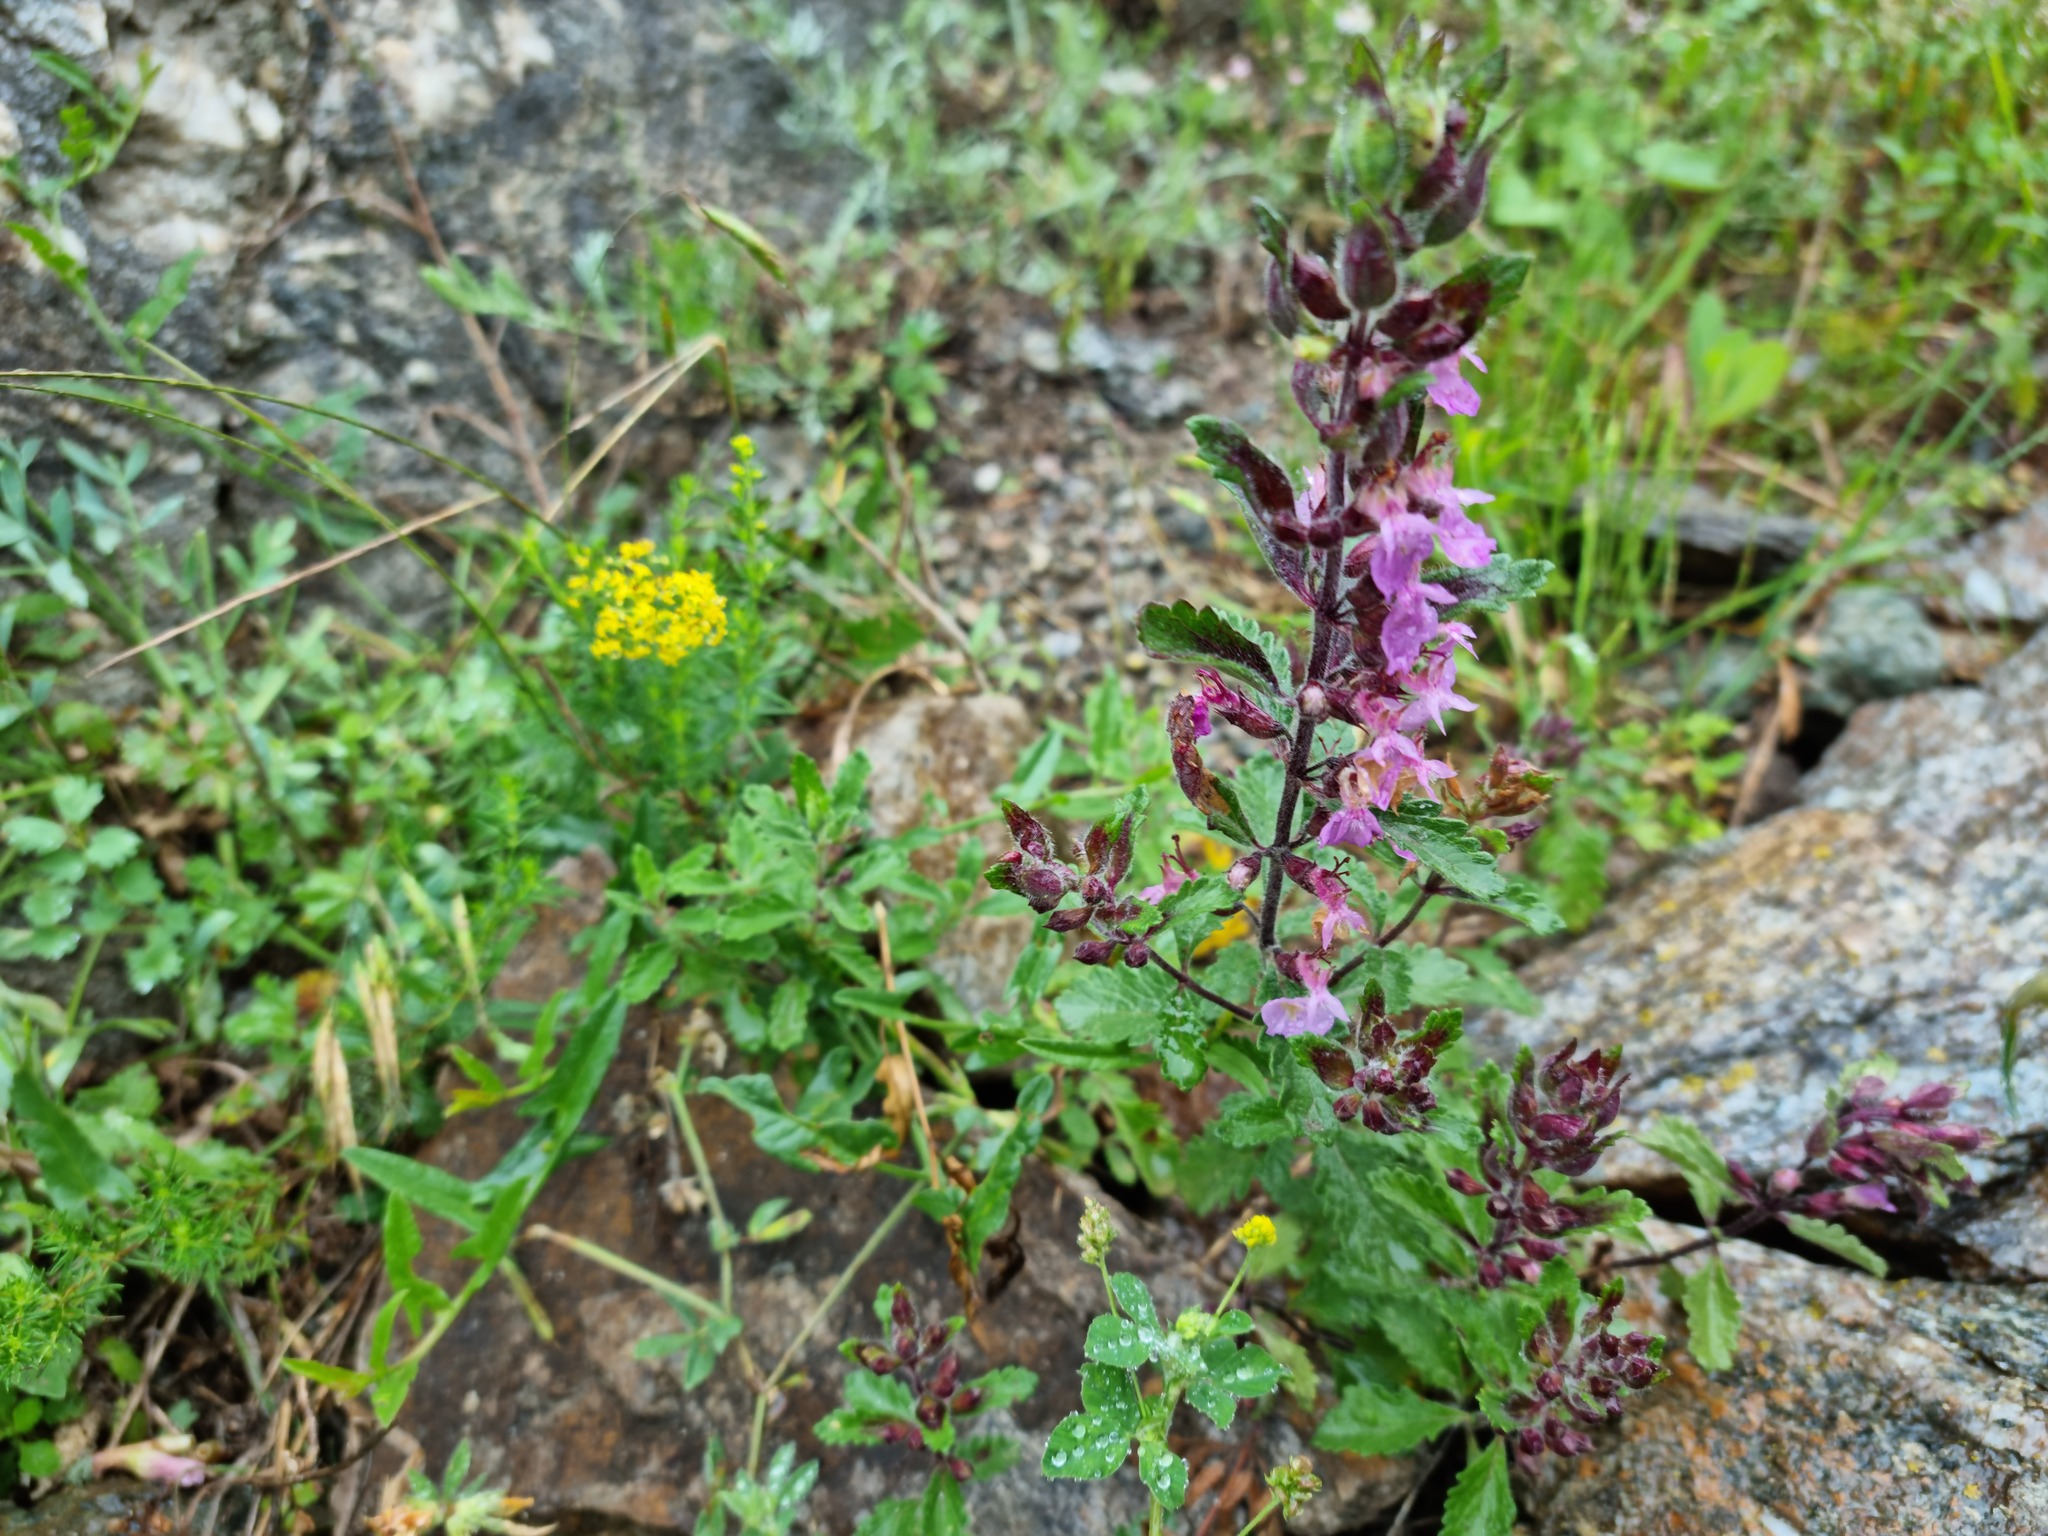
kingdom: Plantae
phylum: Tracheophyta
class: Magnoliopsida
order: Lamiales
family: Lamiaceae
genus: Teucrium
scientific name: Teucrium chamaedrys
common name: Wall germander
